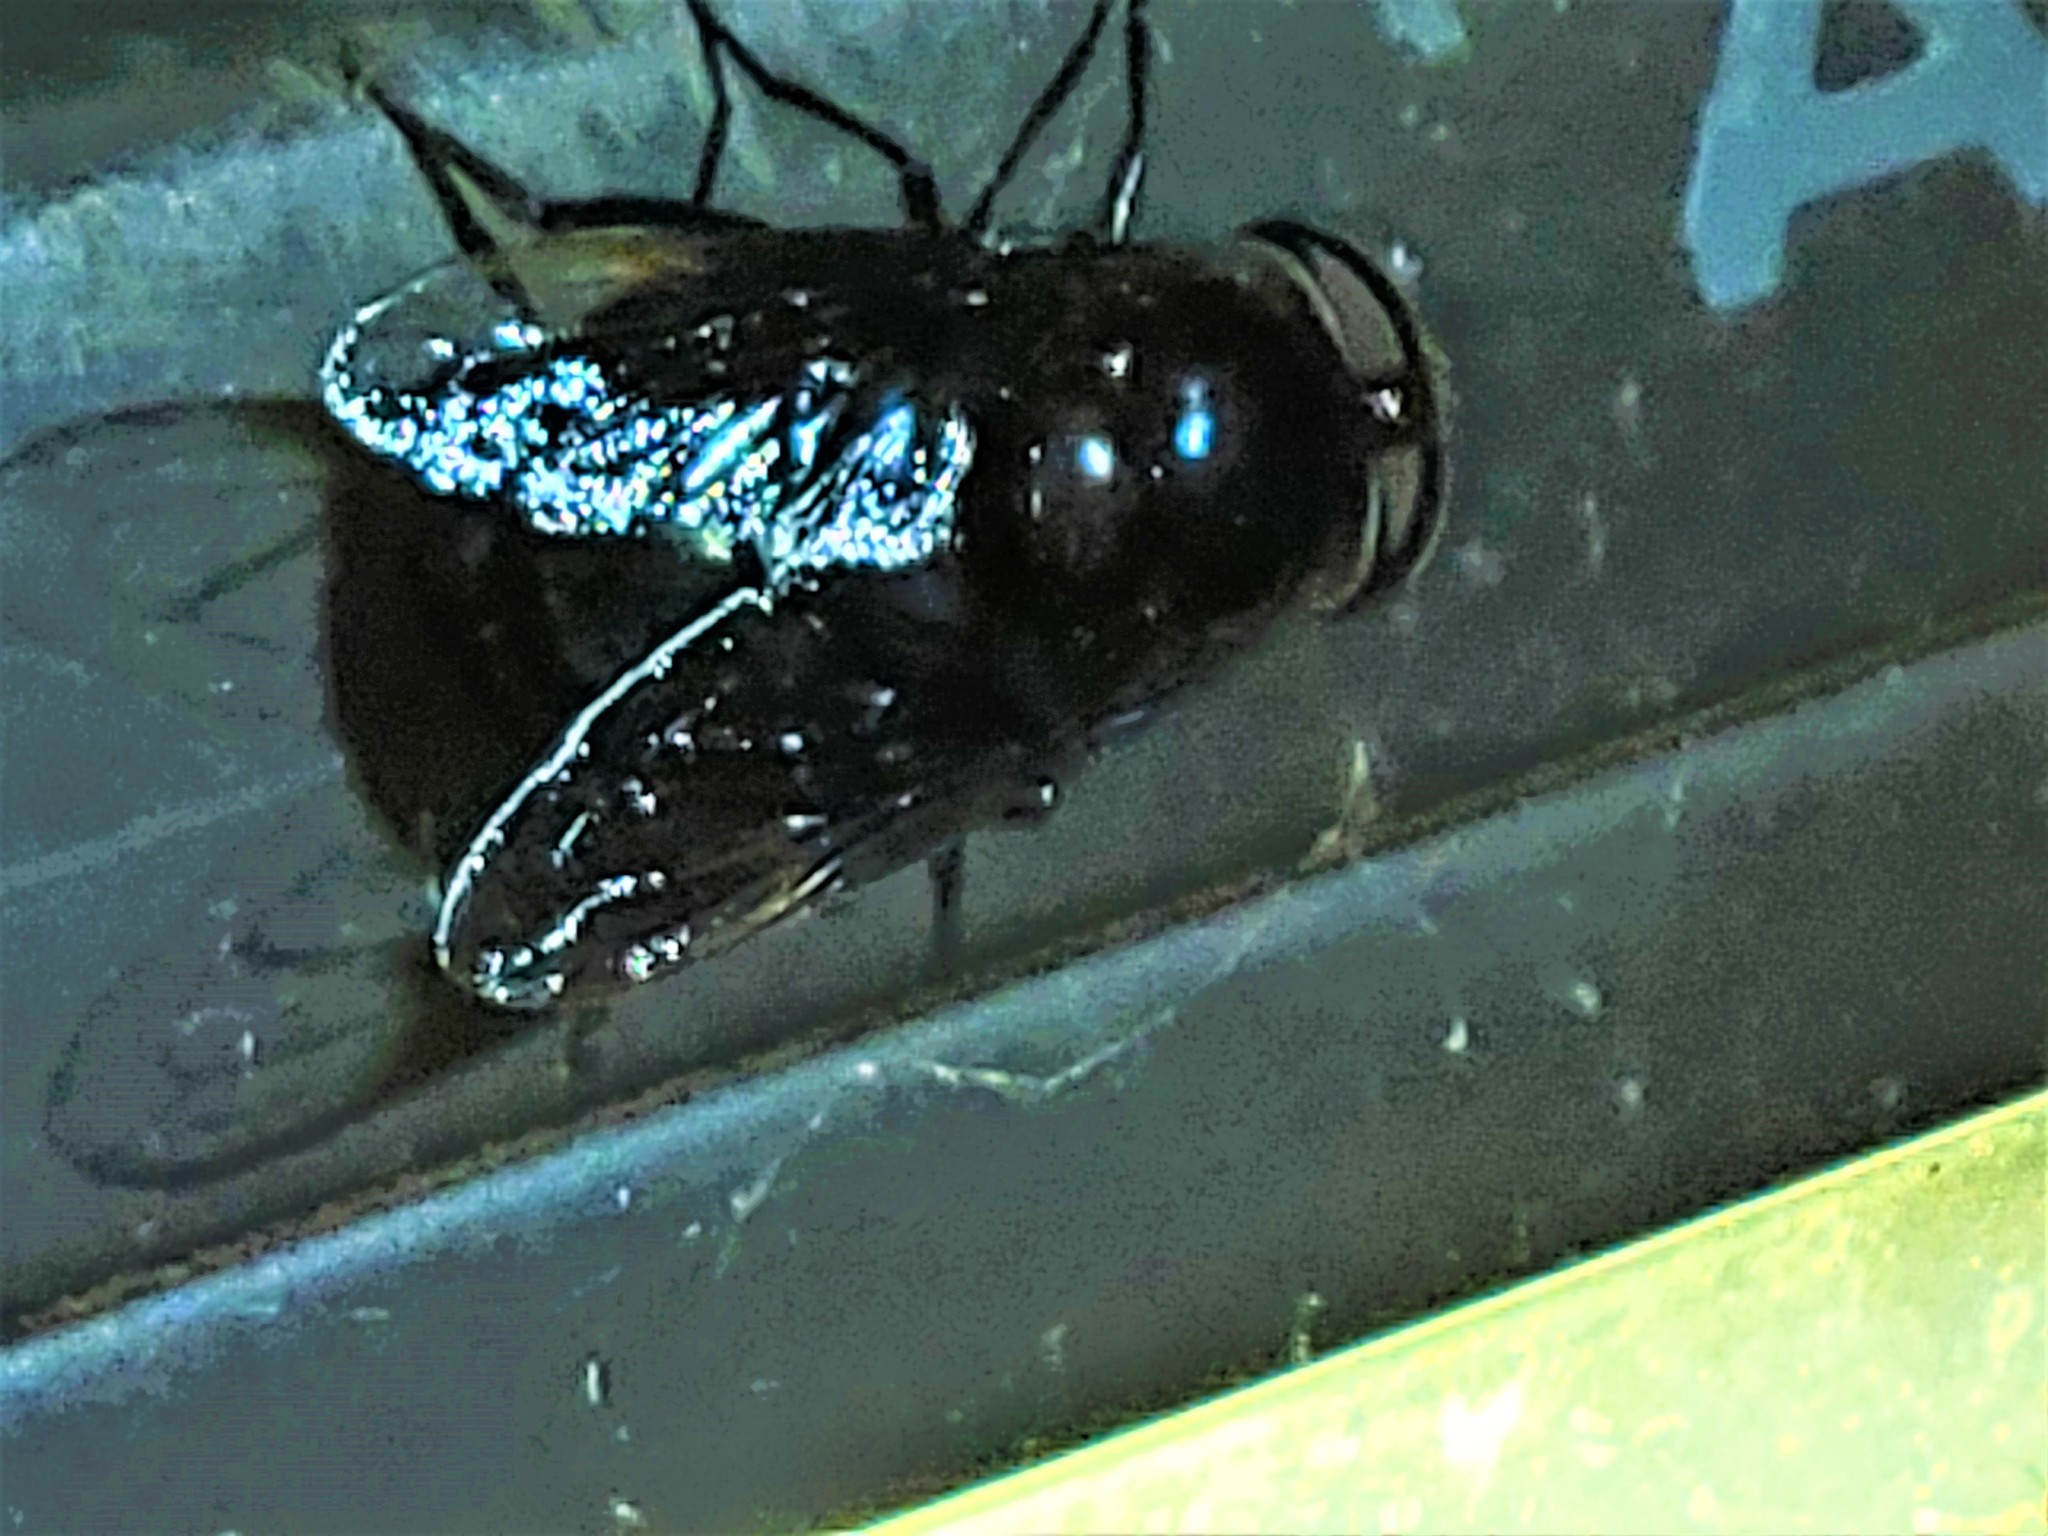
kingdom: Animalia
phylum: Arthropoda
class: Insecta
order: Diptera
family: Syrphidae
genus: Copestylum
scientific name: Copestylum
